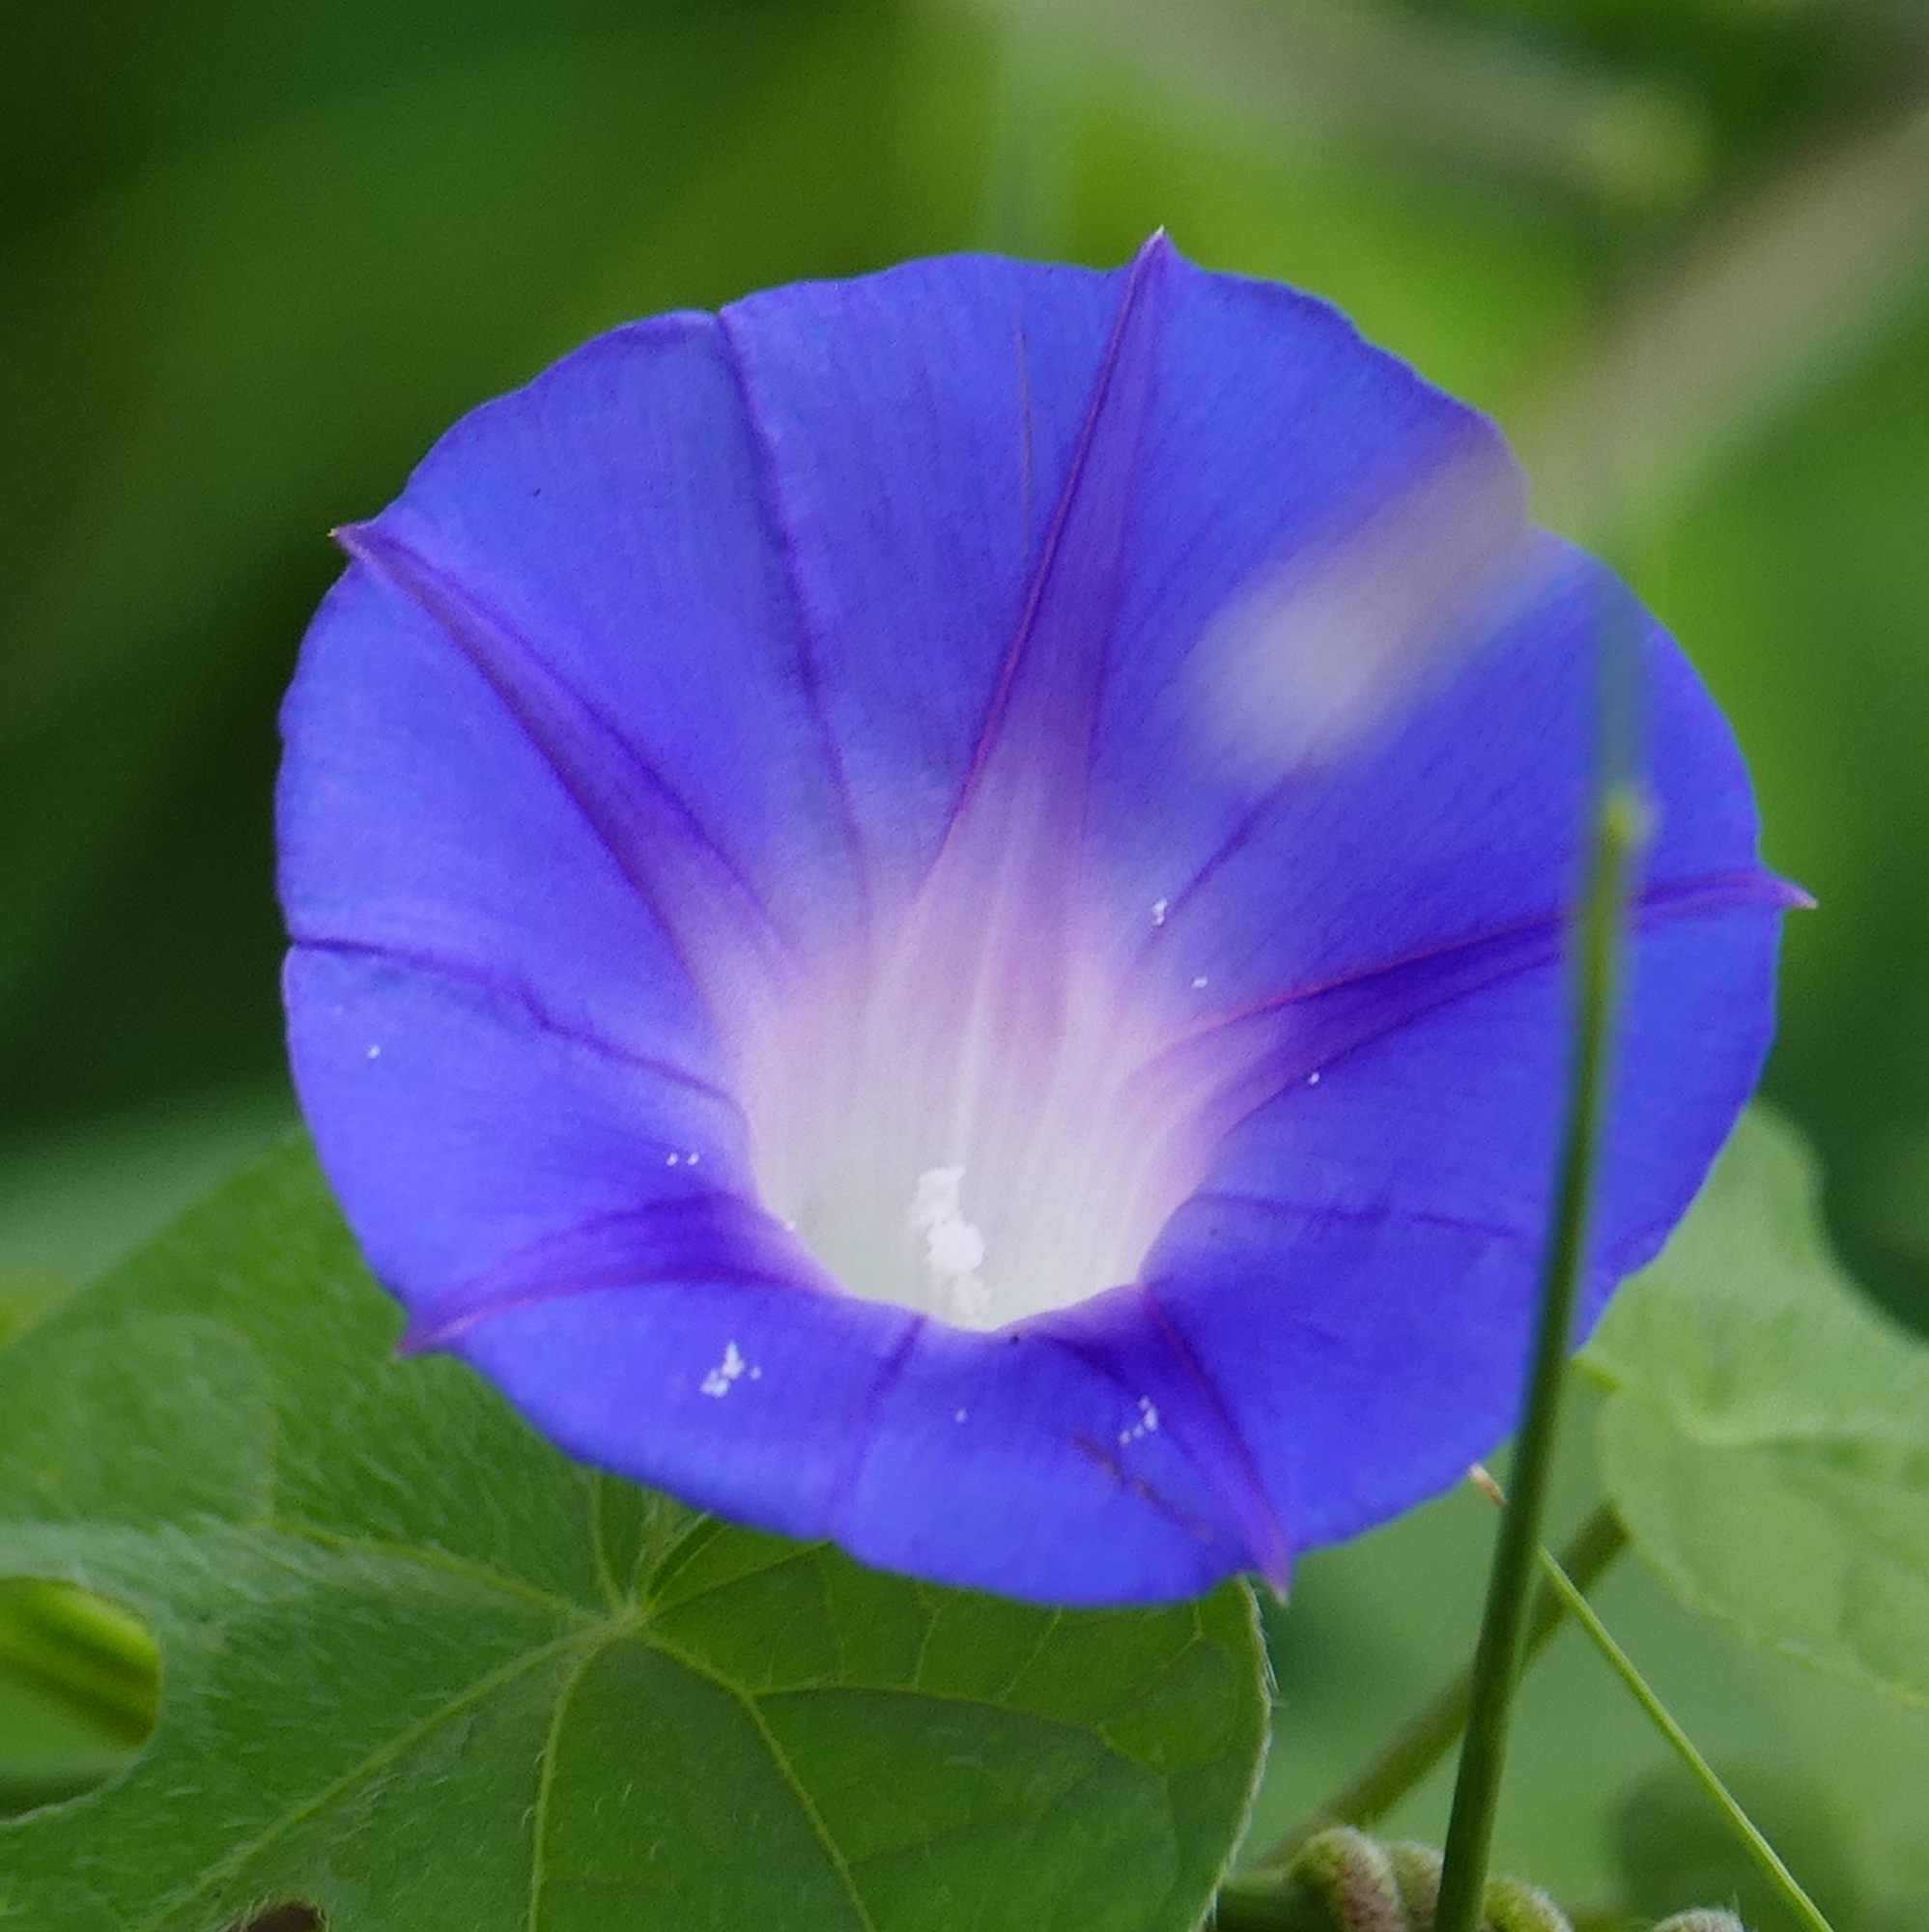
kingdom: Plantae
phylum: Tracheophyta
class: Magnoliopsida
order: Solanales
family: Convolvulaceae
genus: Ipomoea
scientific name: Ipomoea purpurea
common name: Common morning-glory
